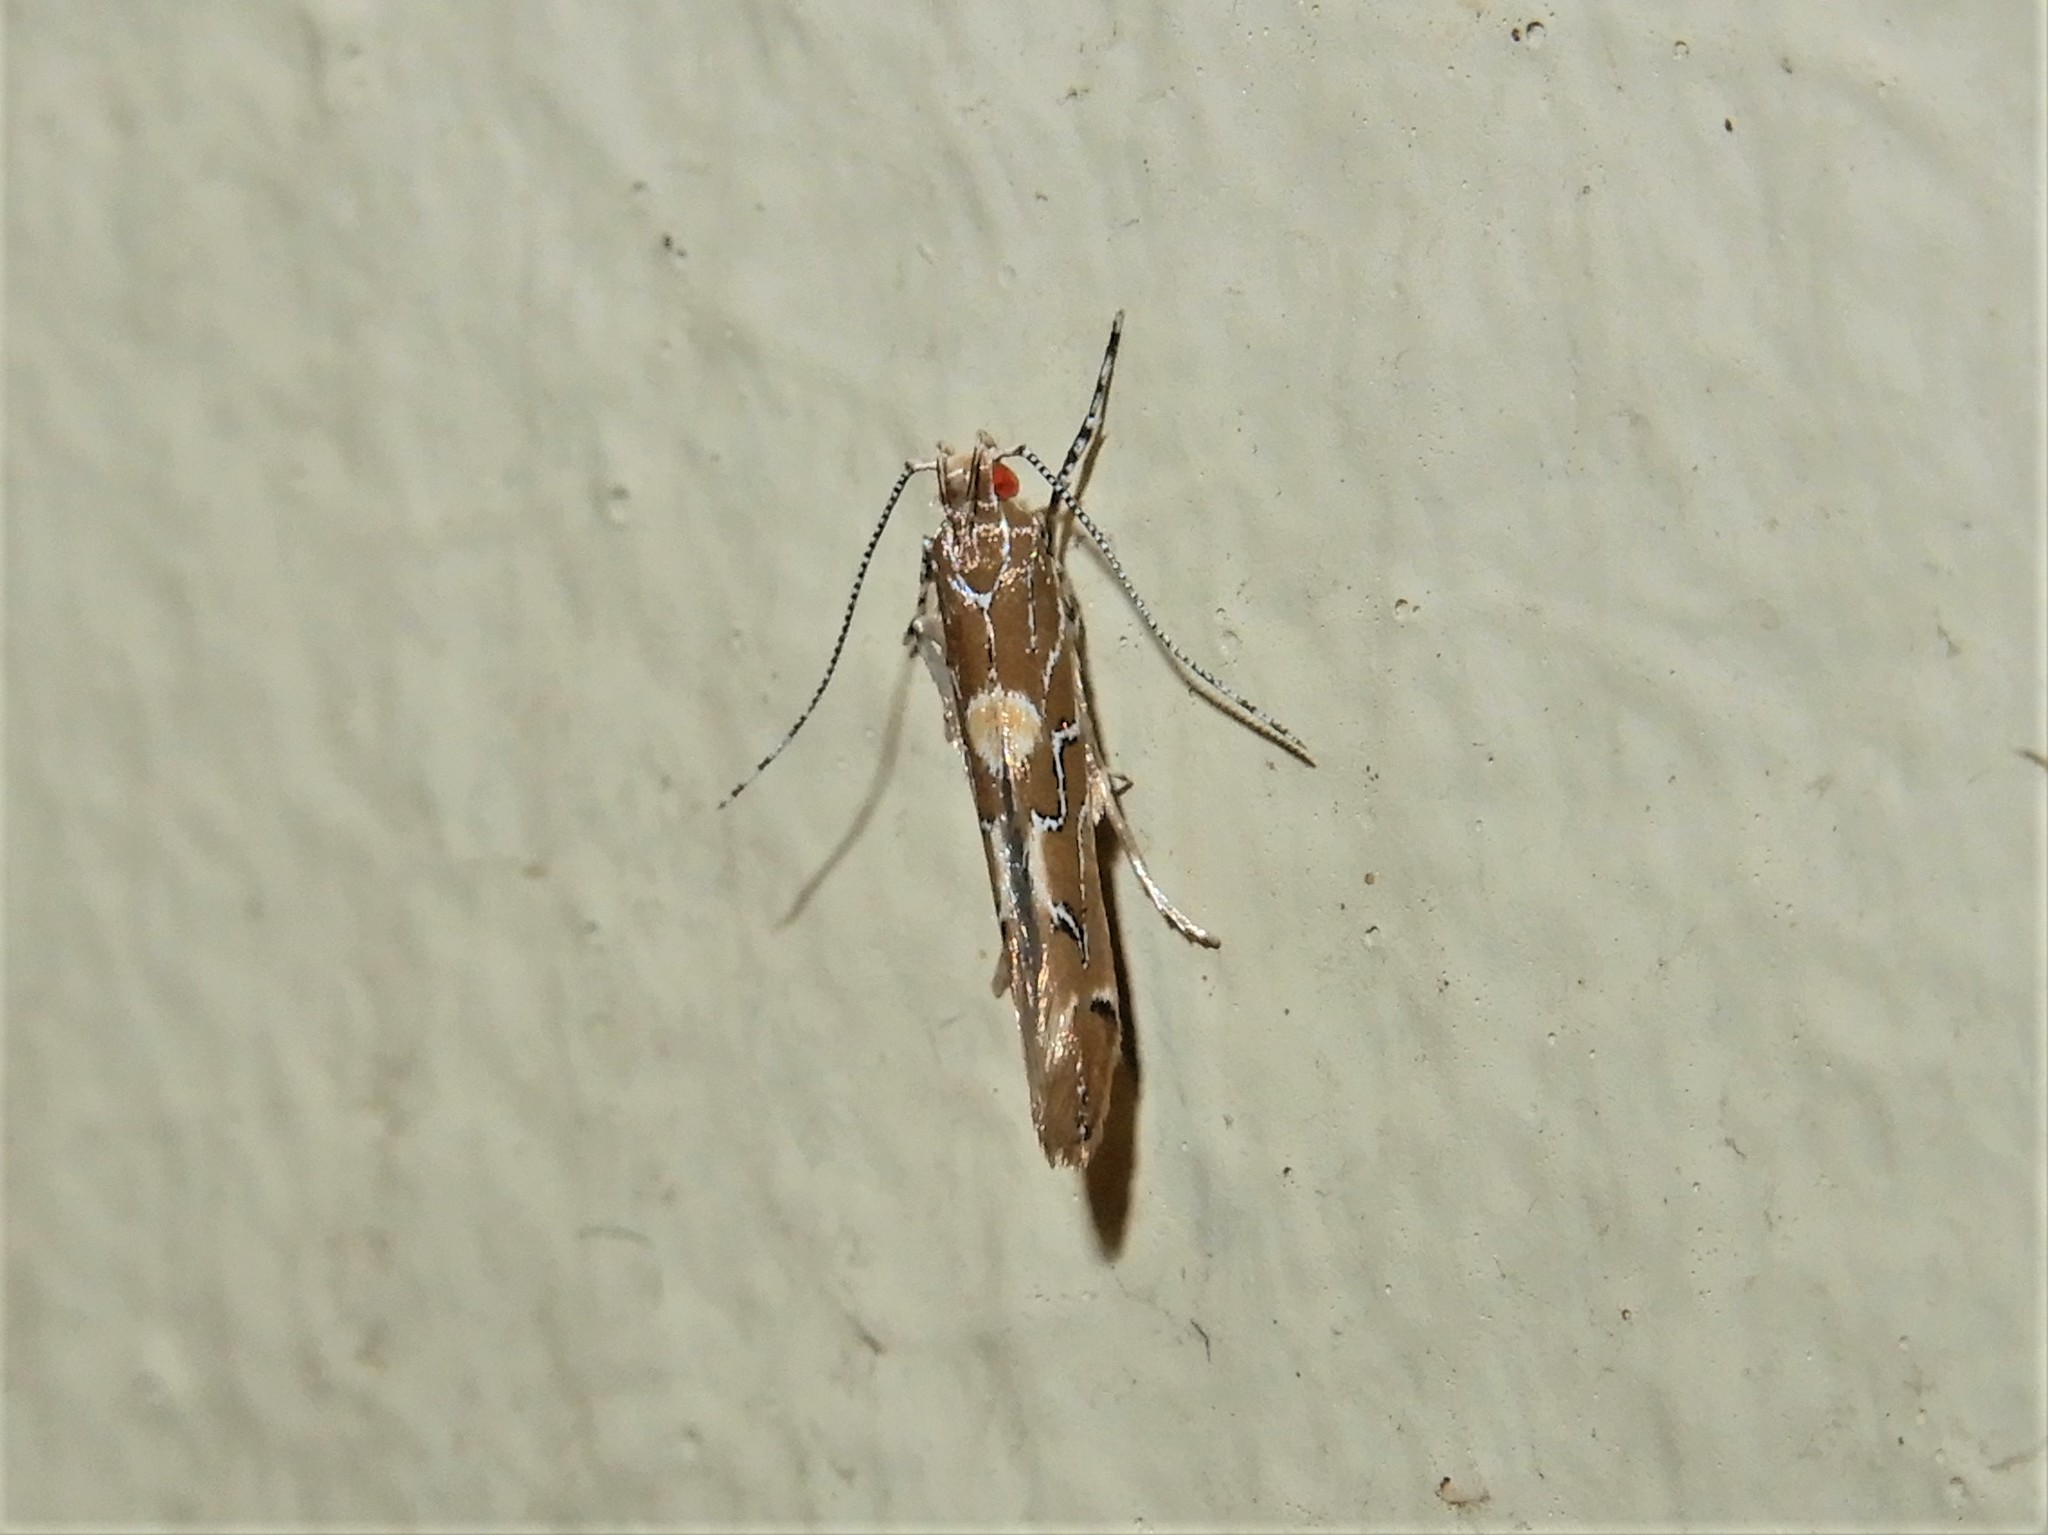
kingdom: Animalia
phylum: Arthropoda
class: Insecta
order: Lepidoptera
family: Cosmopterigidae
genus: Pyroderces
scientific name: Pyroderces apparitella
